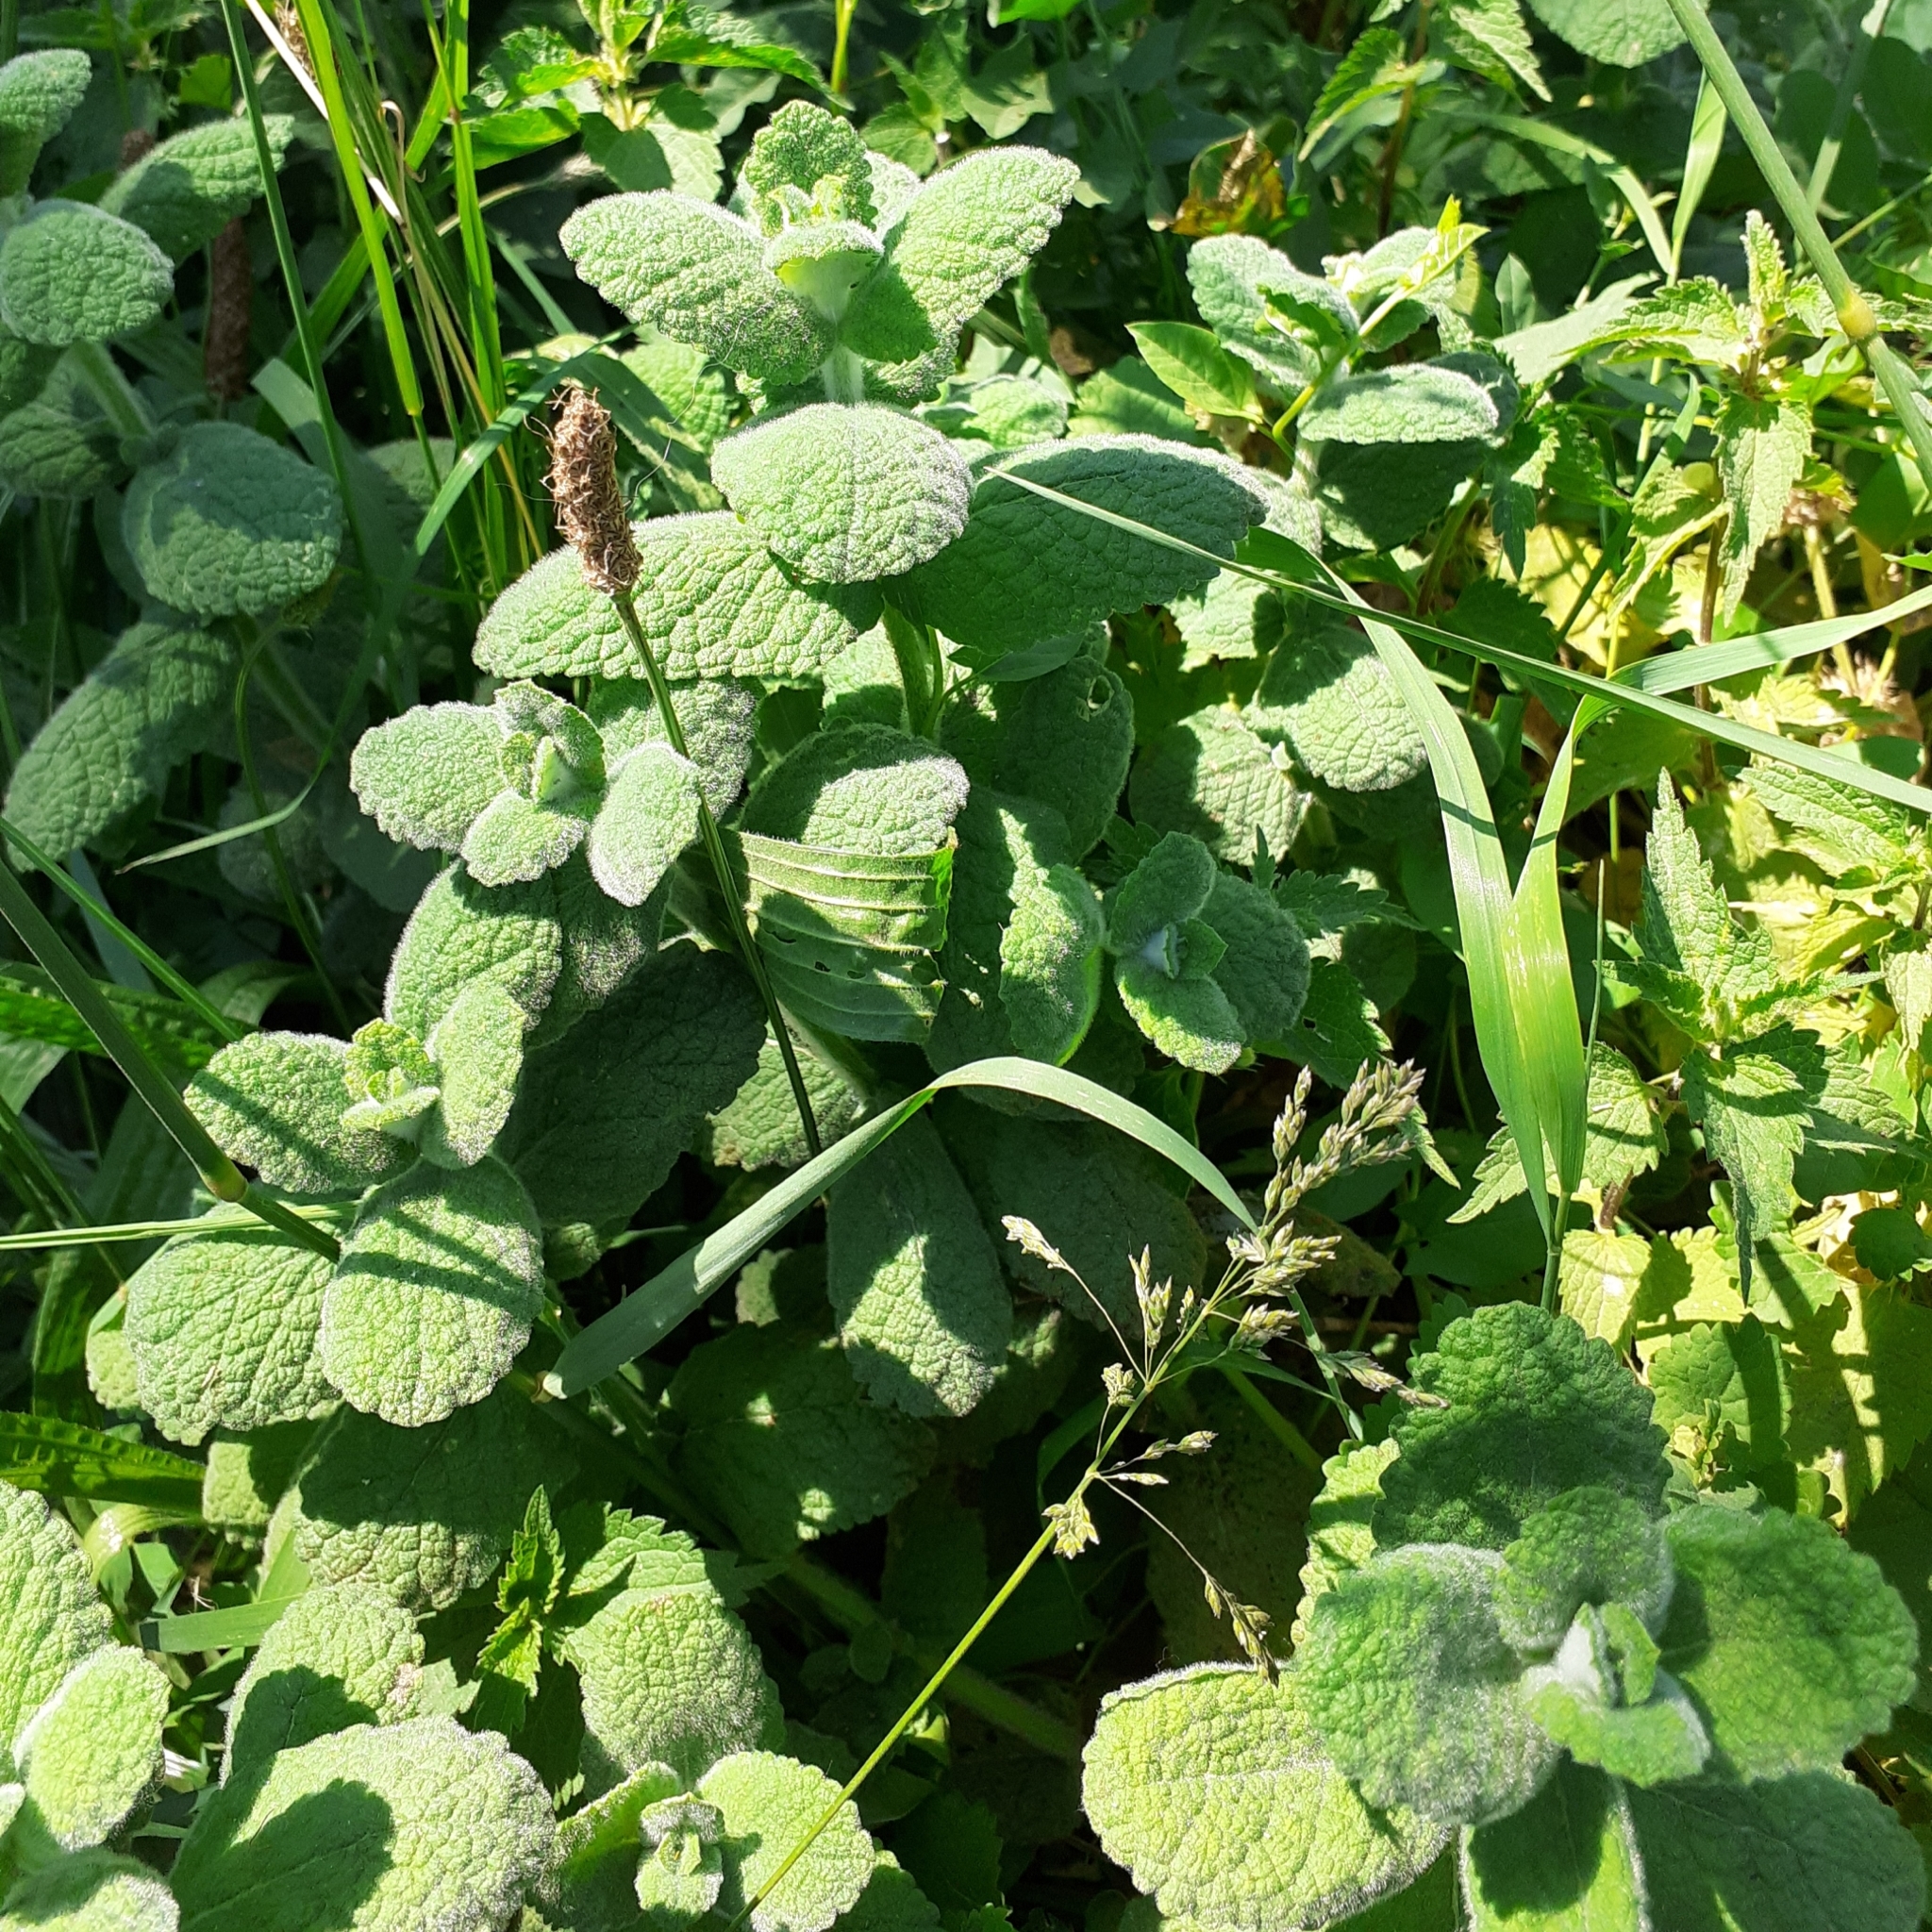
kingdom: Plantae
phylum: Tracheophyta
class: Magnoliopsida
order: Lamiales
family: Lamiaceae
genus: Mentha
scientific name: Mentha suaveolens
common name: Apple mint
